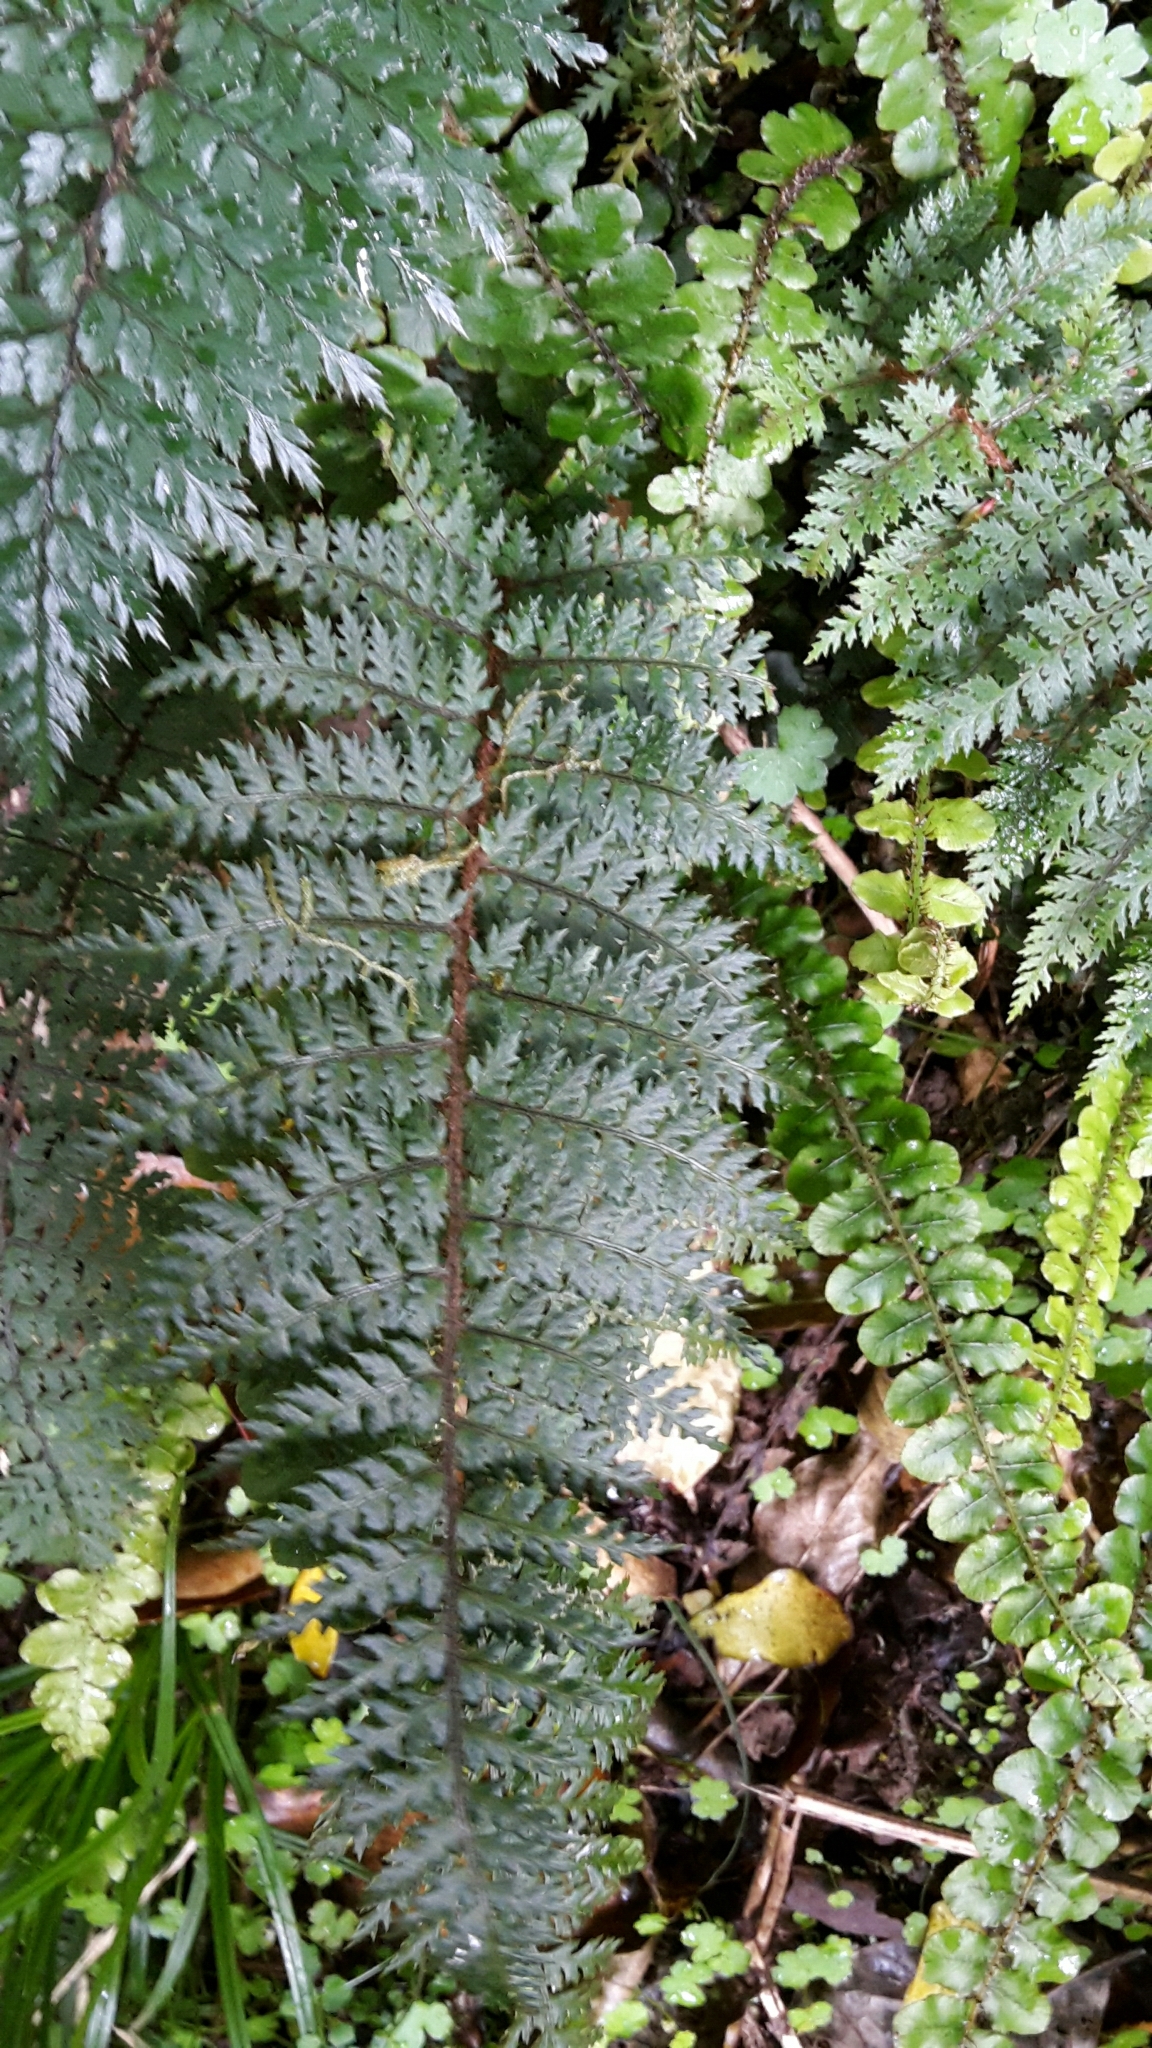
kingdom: Plantae
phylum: Tracheophyta
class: Polypodiopsida
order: Polypodiales
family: Dryopteridaceae
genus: Polystichum
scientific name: Polystichum silvaticum
